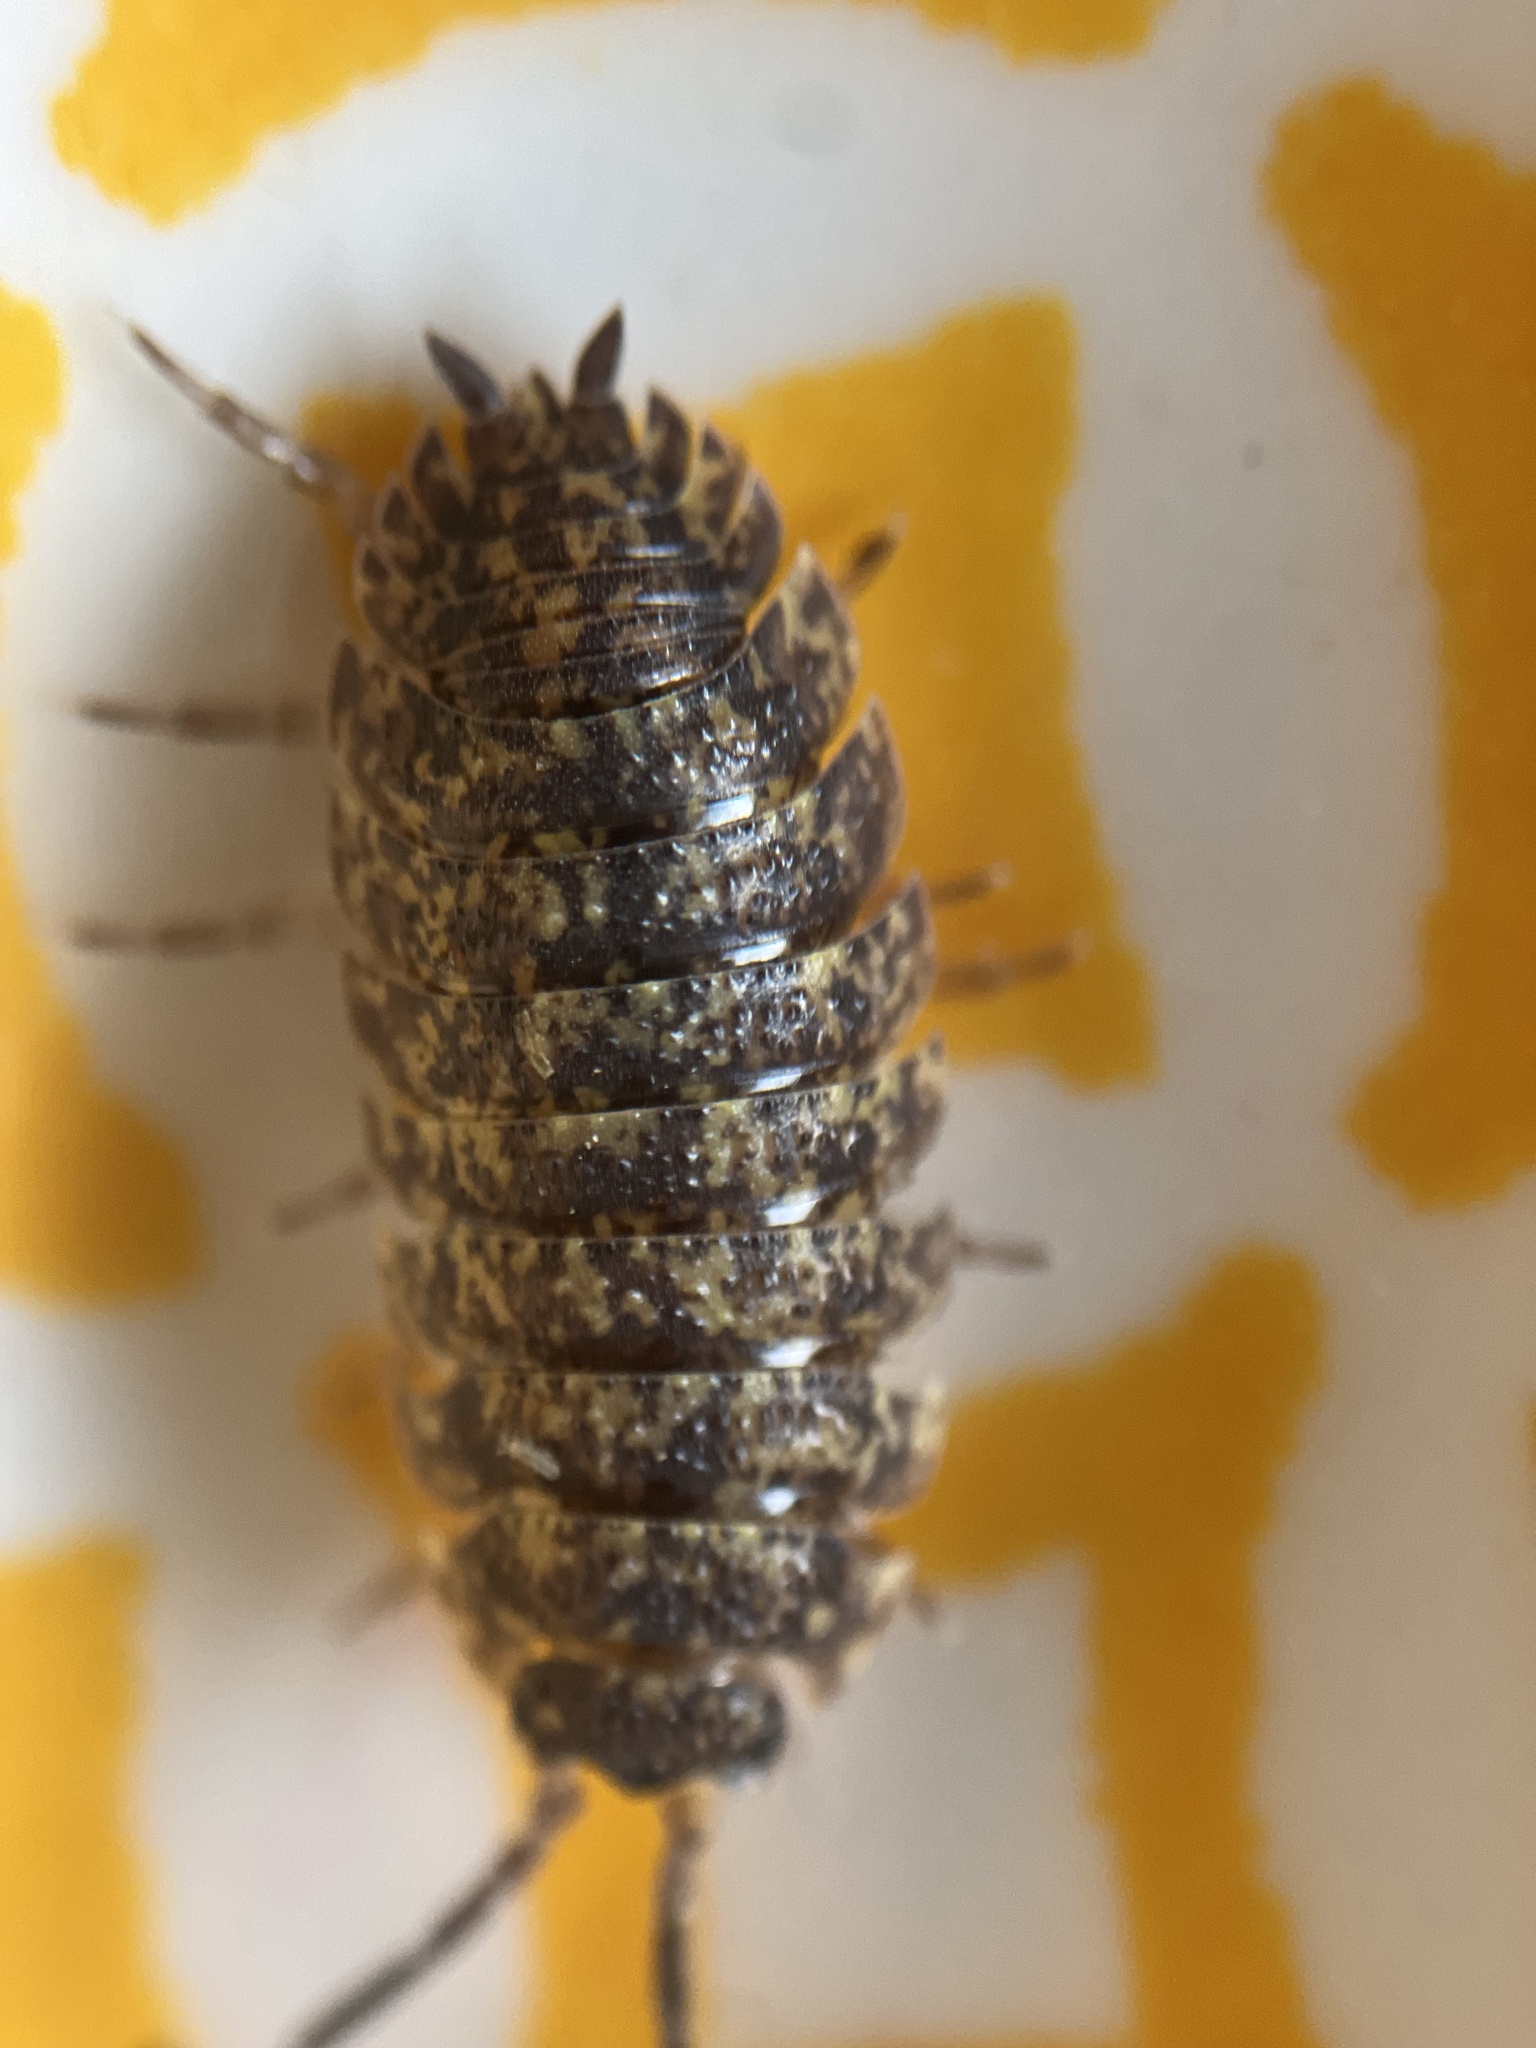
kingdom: Animalia
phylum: Arthropoda
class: Malacostraca
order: Isopoda
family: Porcellionidae
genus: Porcellio
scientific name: Porcellio scaber
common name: Common rough woodlouse
